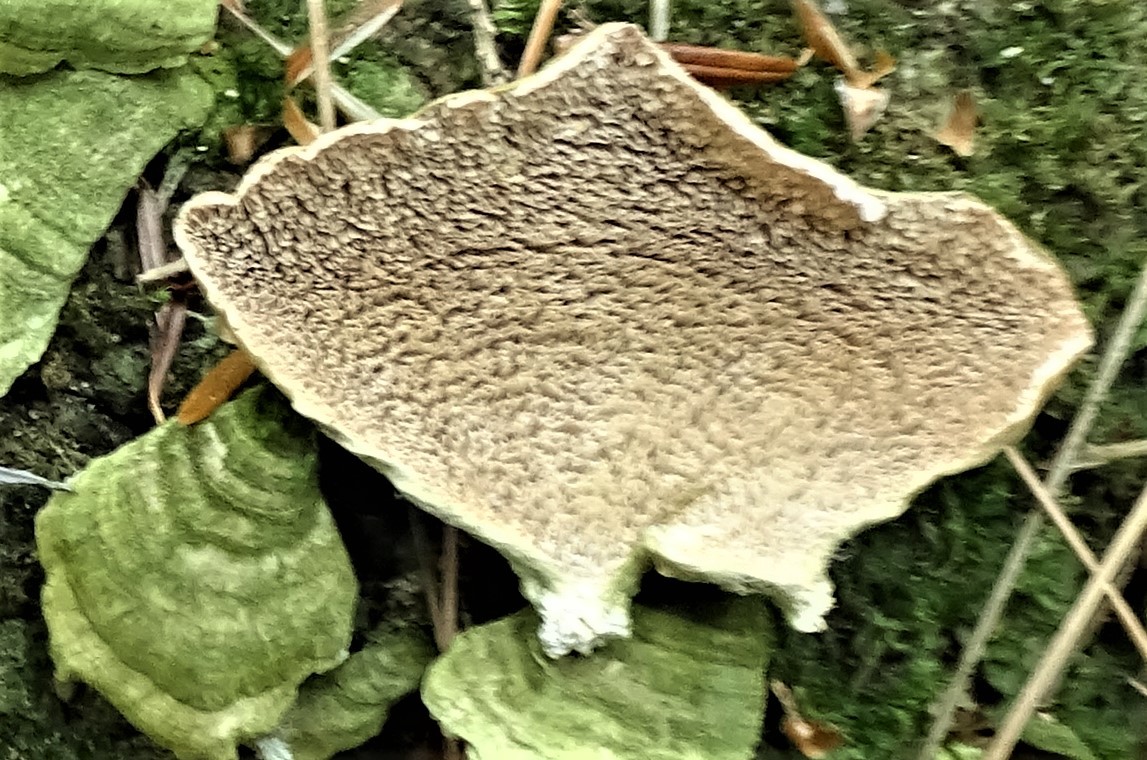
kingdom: Fungi
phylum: Basidiomycota
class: Agaricomycetes
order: Polyporales
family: Cerrenaceae
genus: Cerrena
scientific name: Cerrena unicolor
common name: Mossy maze polypore
